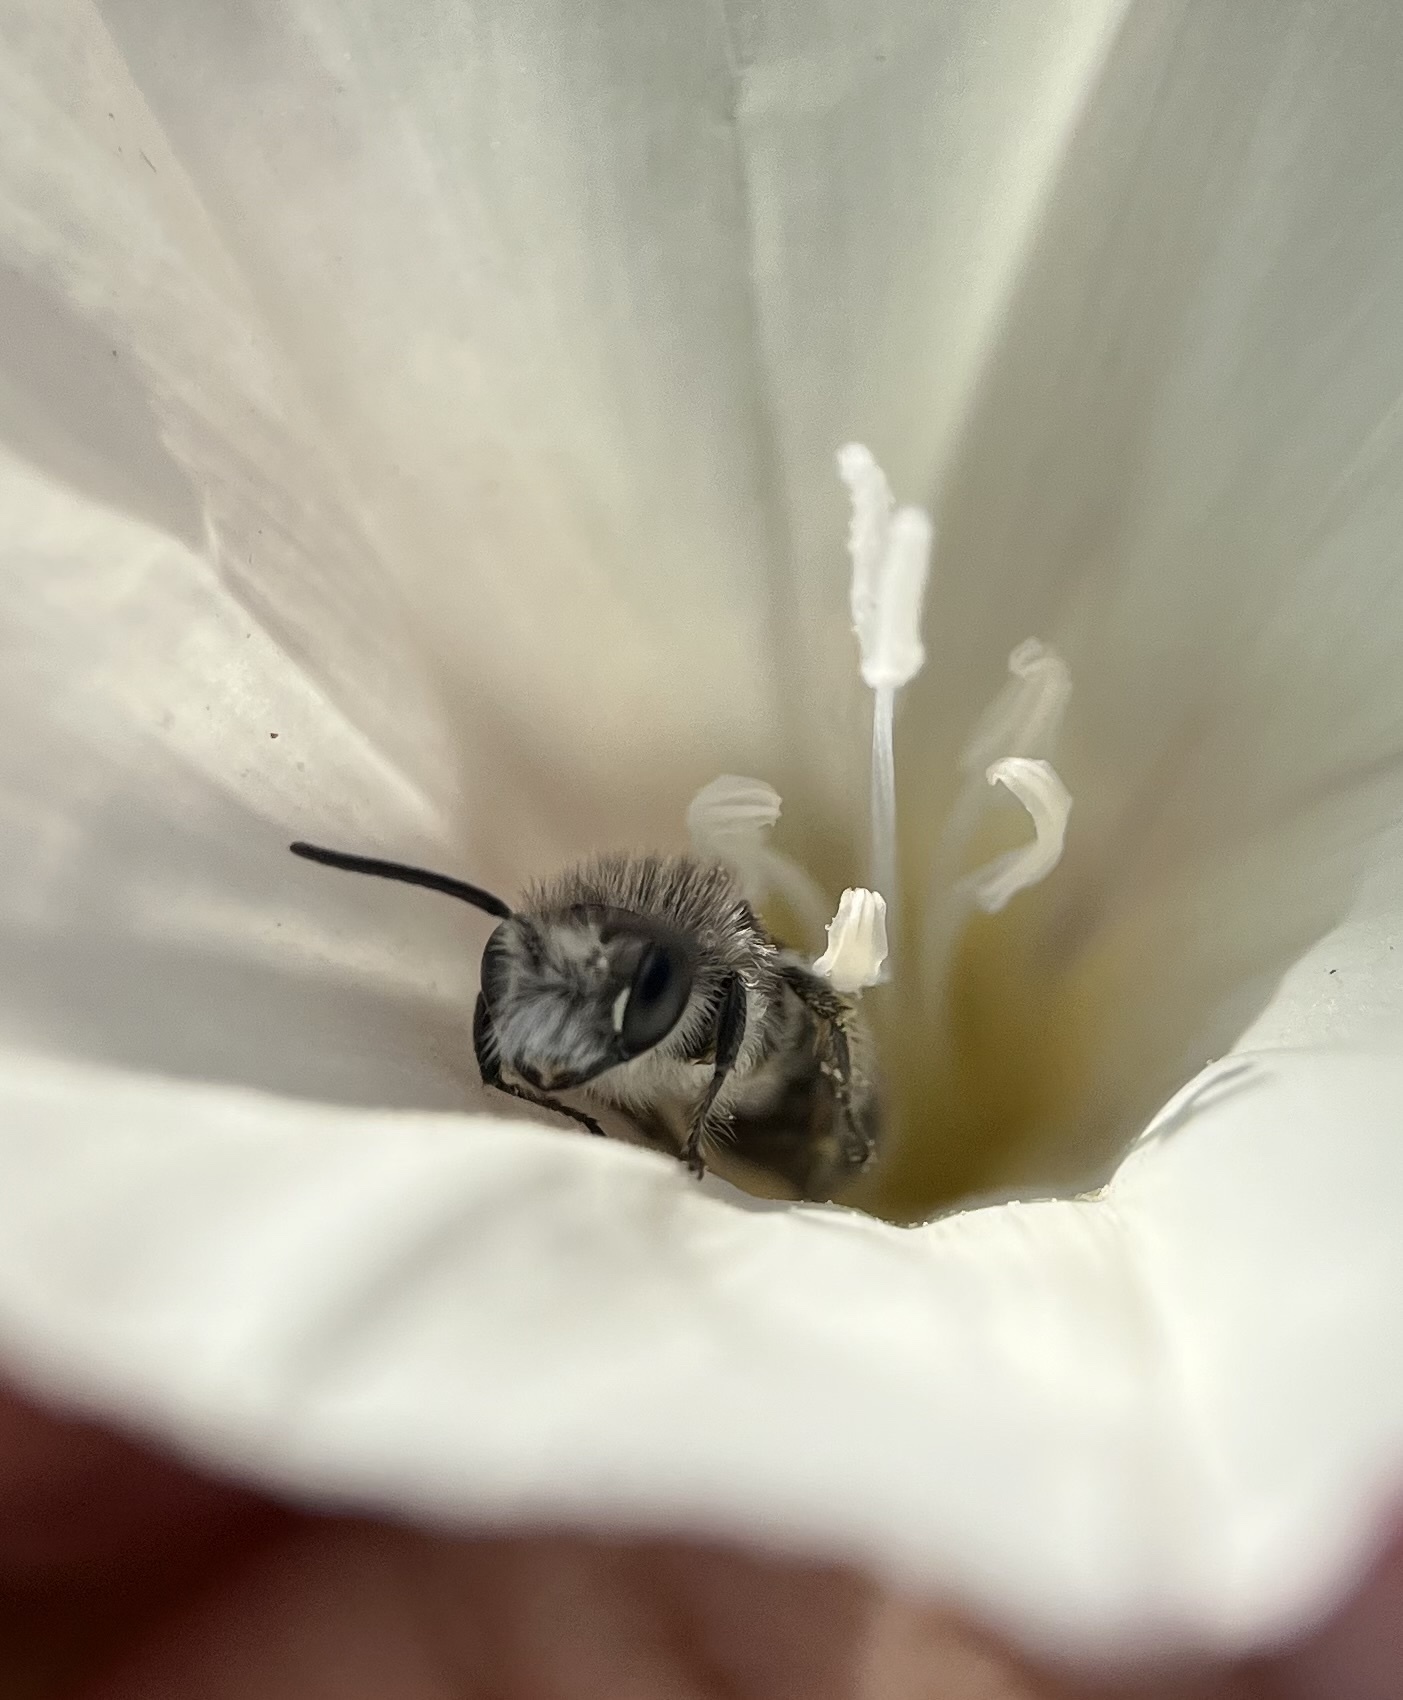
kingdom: Animalia
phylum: Arthropoda
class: Insecta
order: Hymenoptera
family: Andrenidae
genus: Ancylandrena
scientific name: Ancylandrena atoposoma
